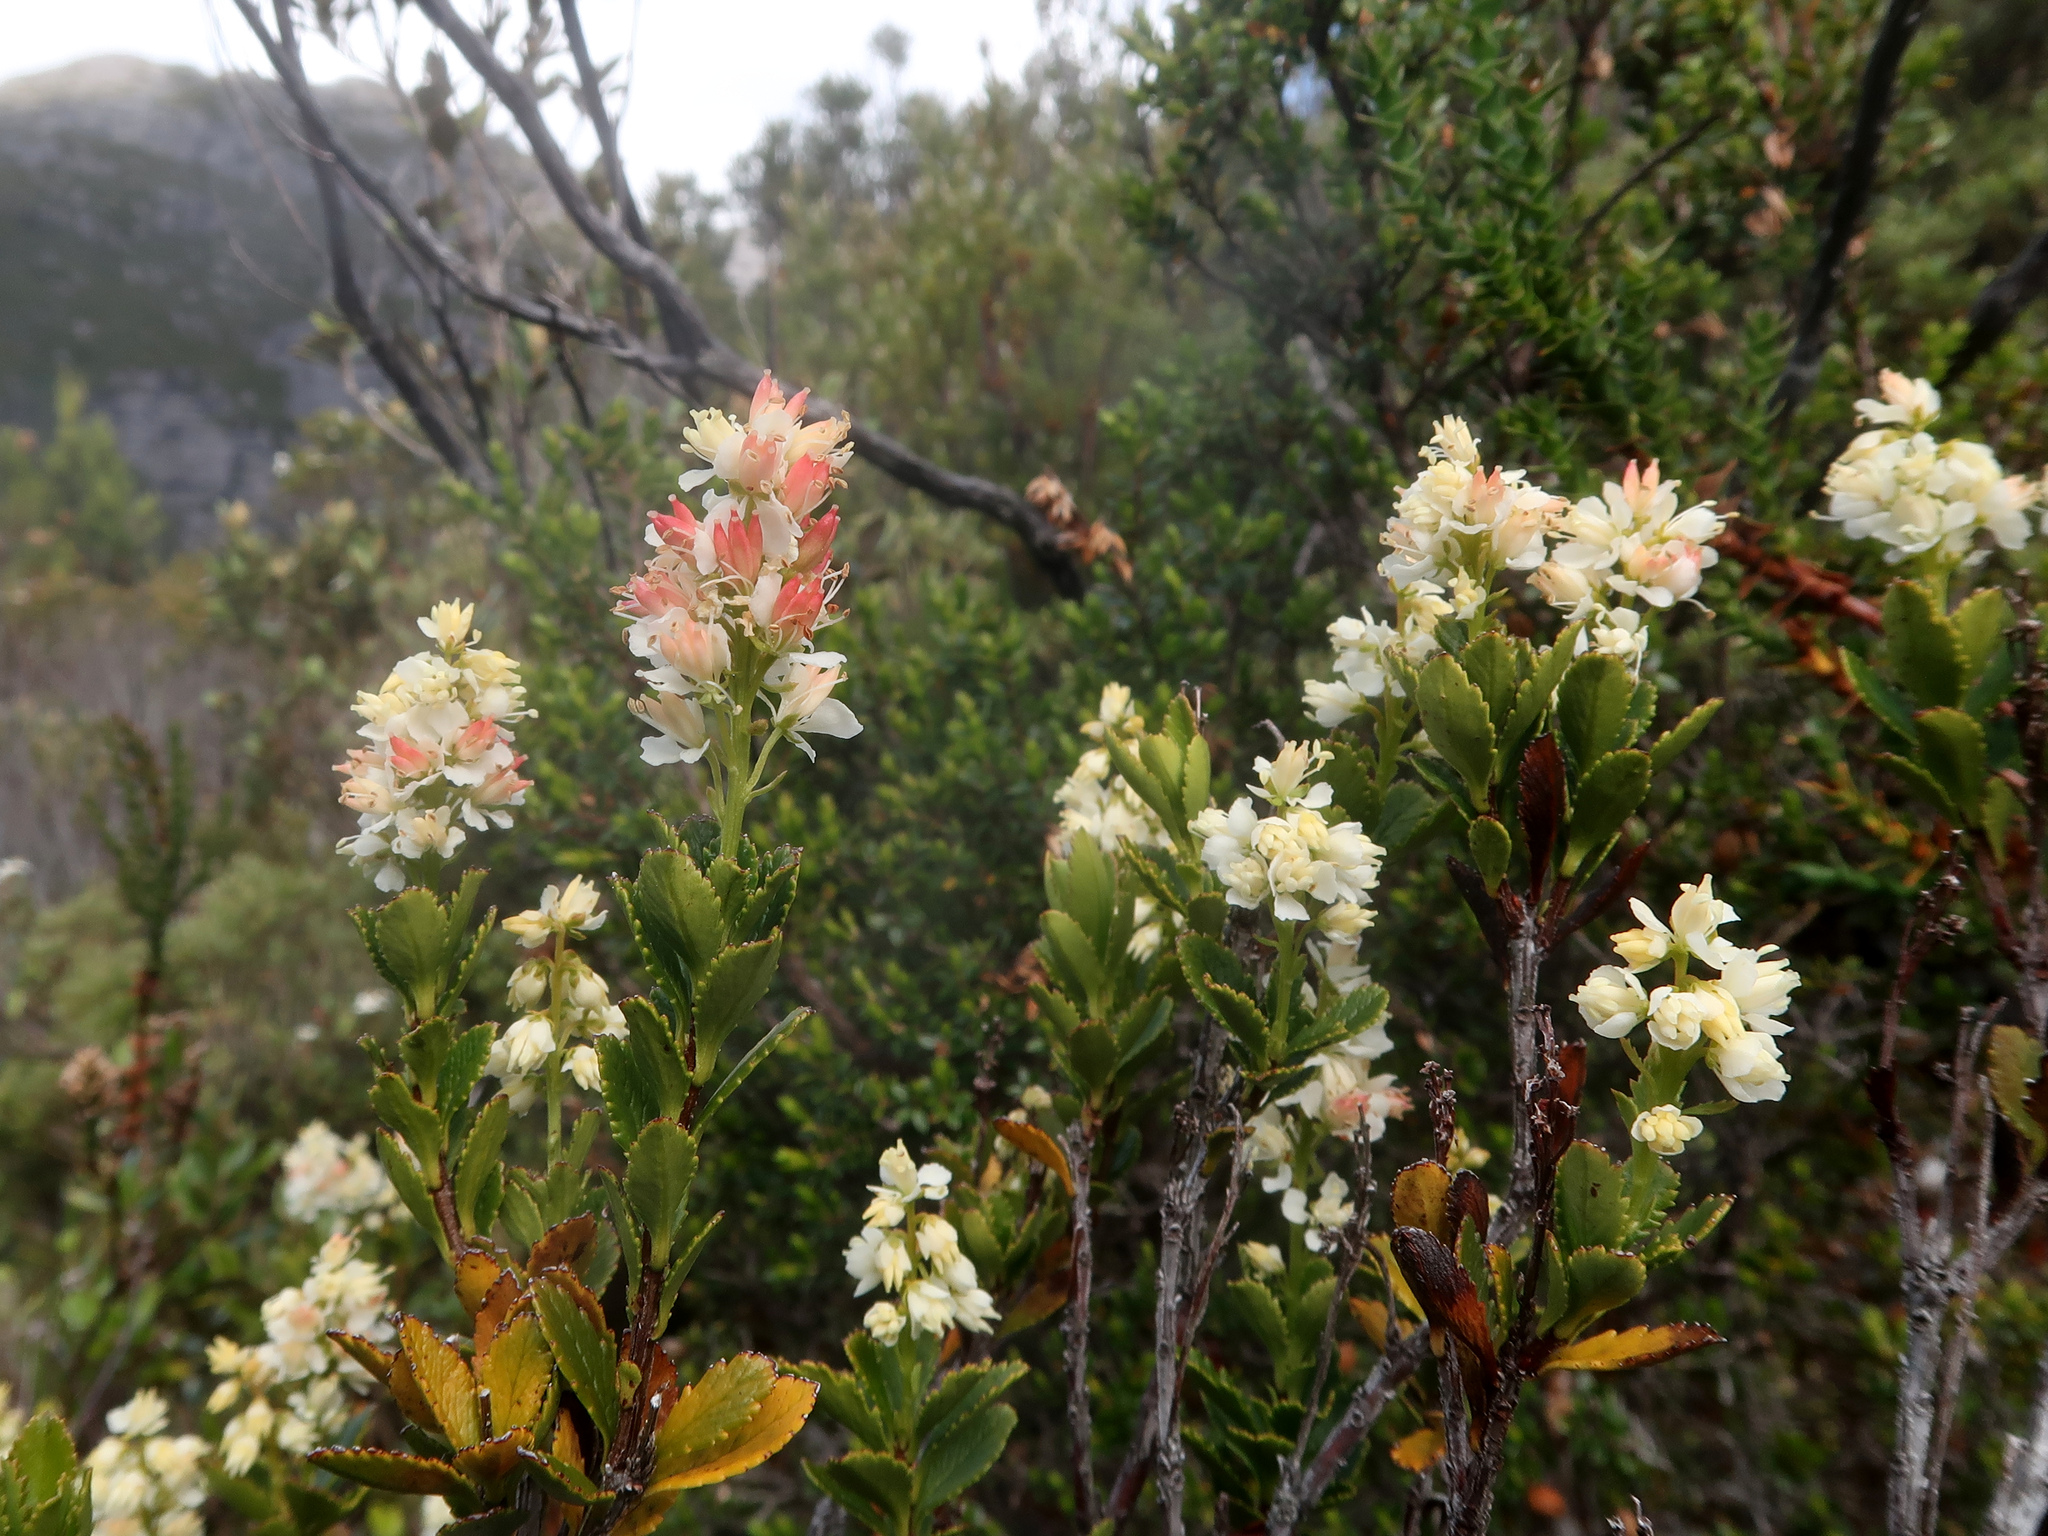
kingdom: Plantae
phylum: Tracheophyta
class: Magnoliopsida
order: Saxifragales
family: Tetracarpaeaceae
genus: Tetracarpaea
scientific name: Tetracarpaea tasmanica
